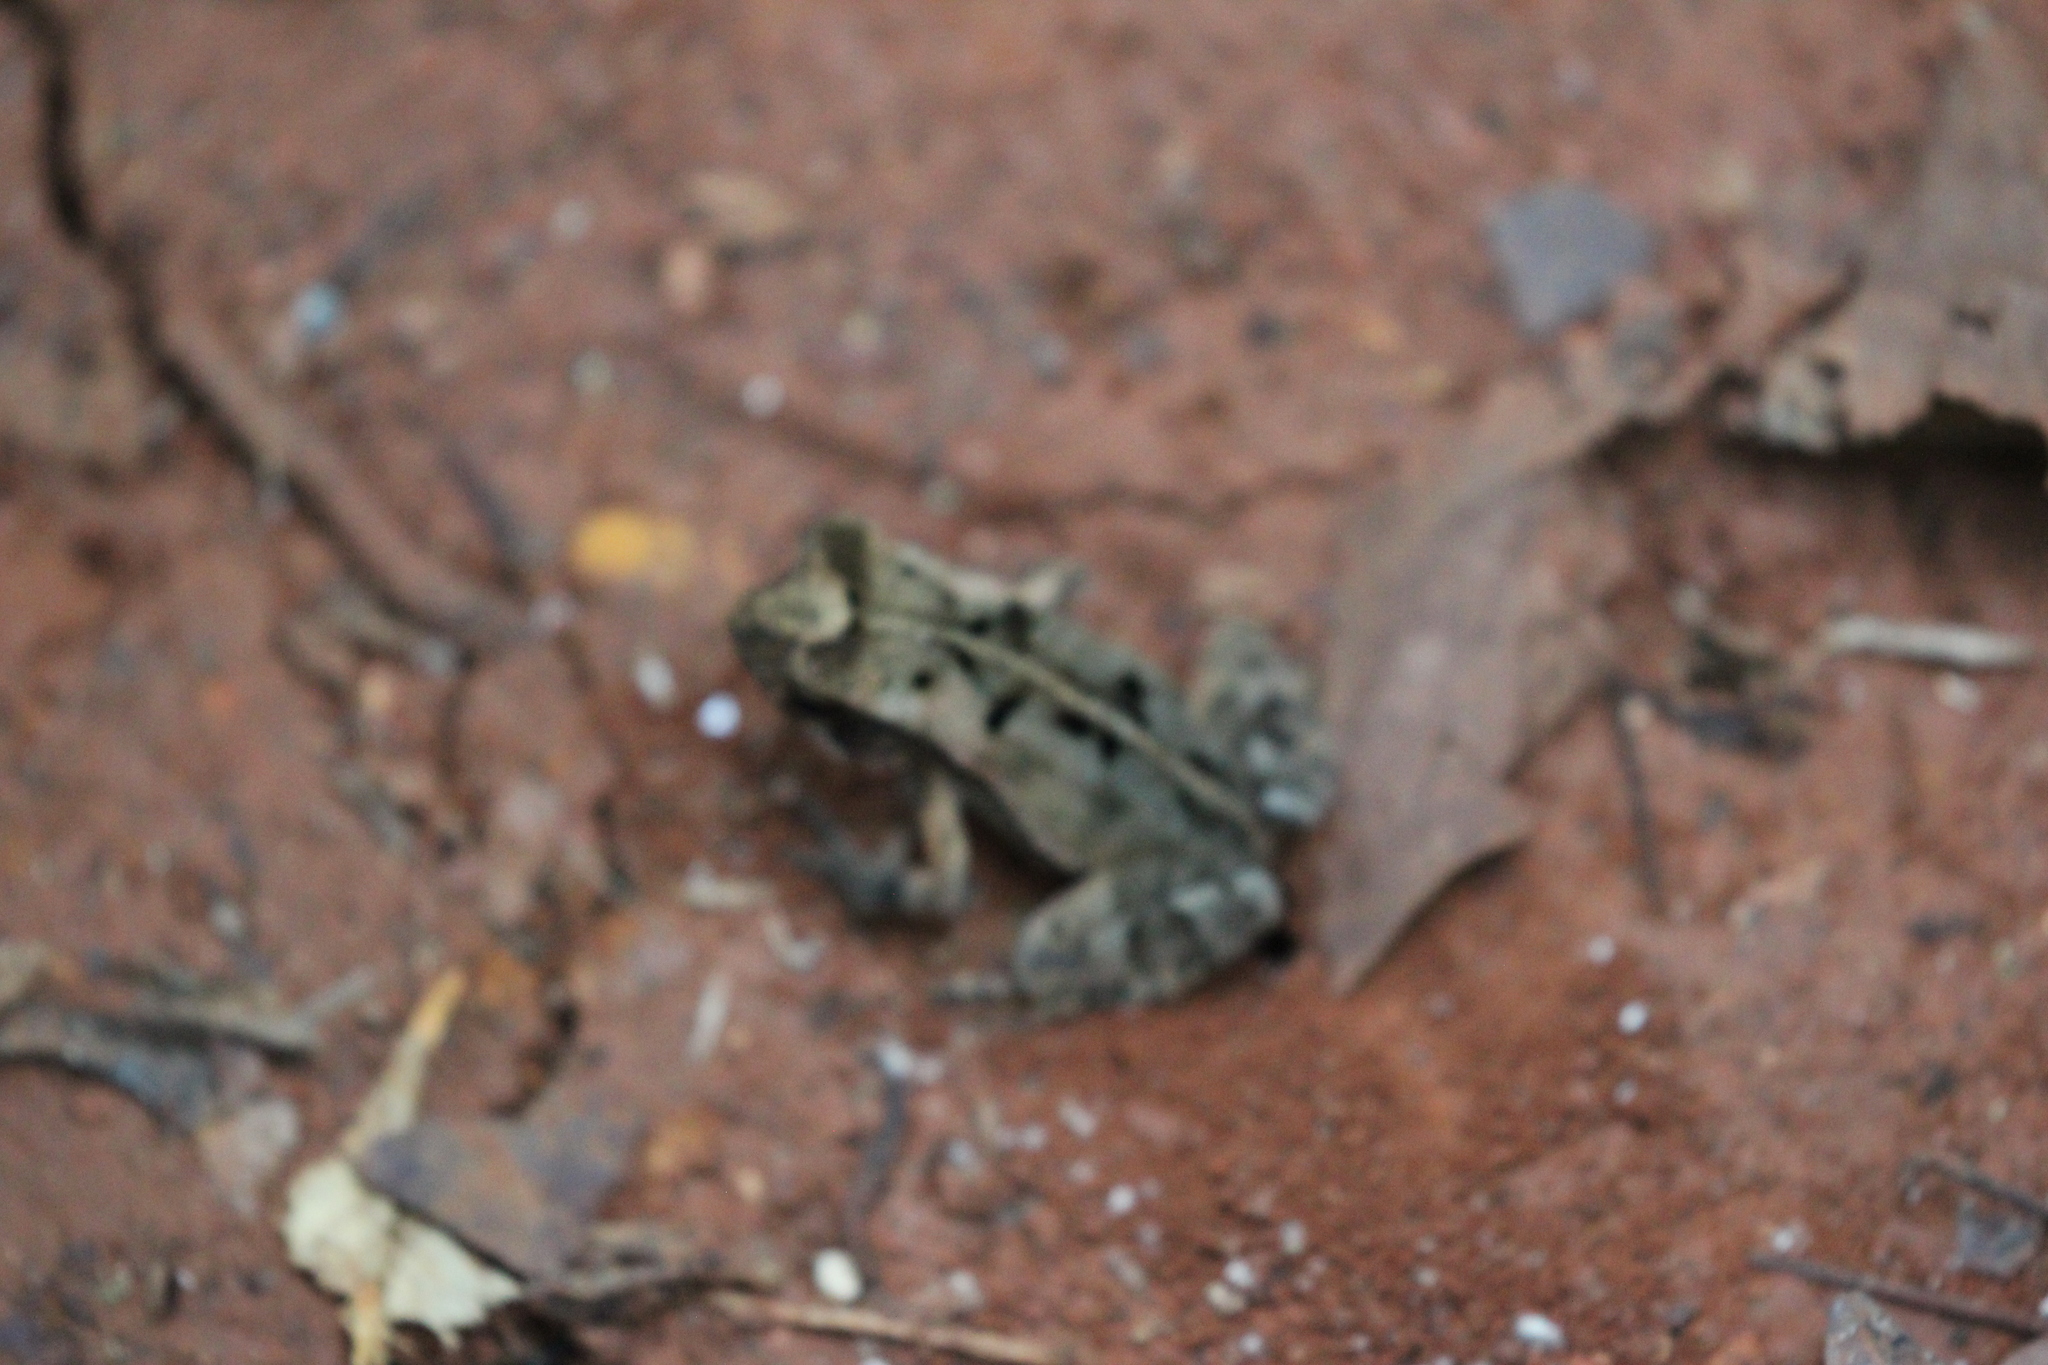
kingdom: Animalia
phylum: Chordata
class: Amphibia
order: Anura
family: Bufonidae
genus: Incilius
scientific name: Incilius aucoinae
